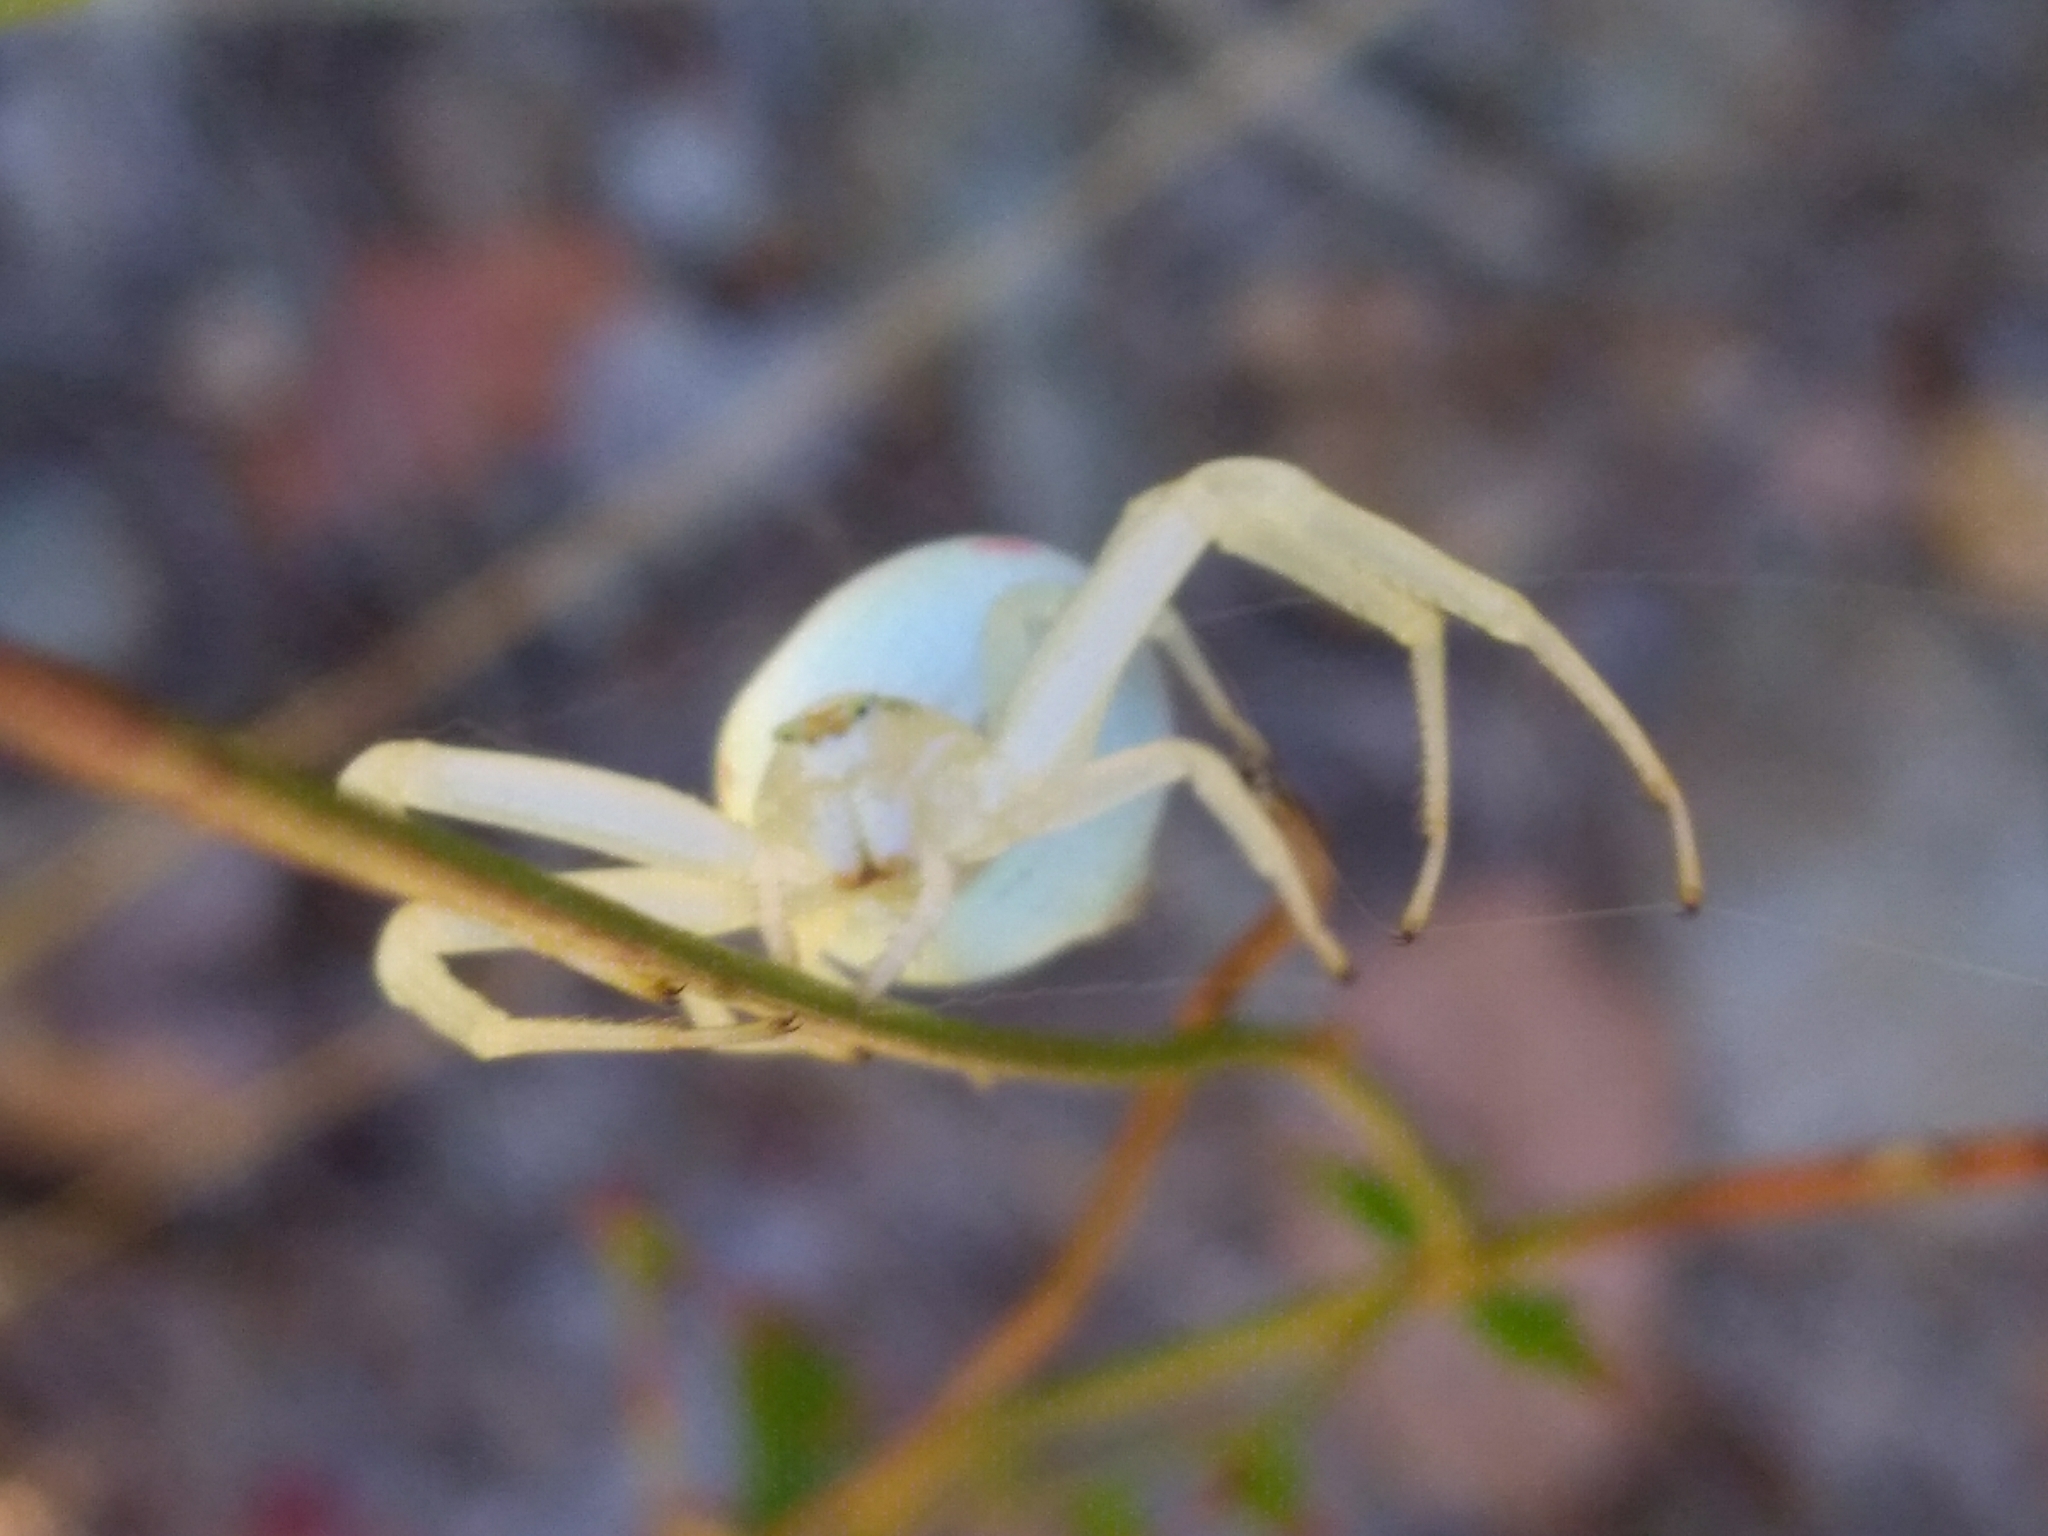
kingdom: Animalia
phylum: Arthropoda
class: Arachnida
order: Araneae
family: Thomisidae
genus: Misumena
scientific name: Misumena vatia
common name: Goldenrod crab spider
